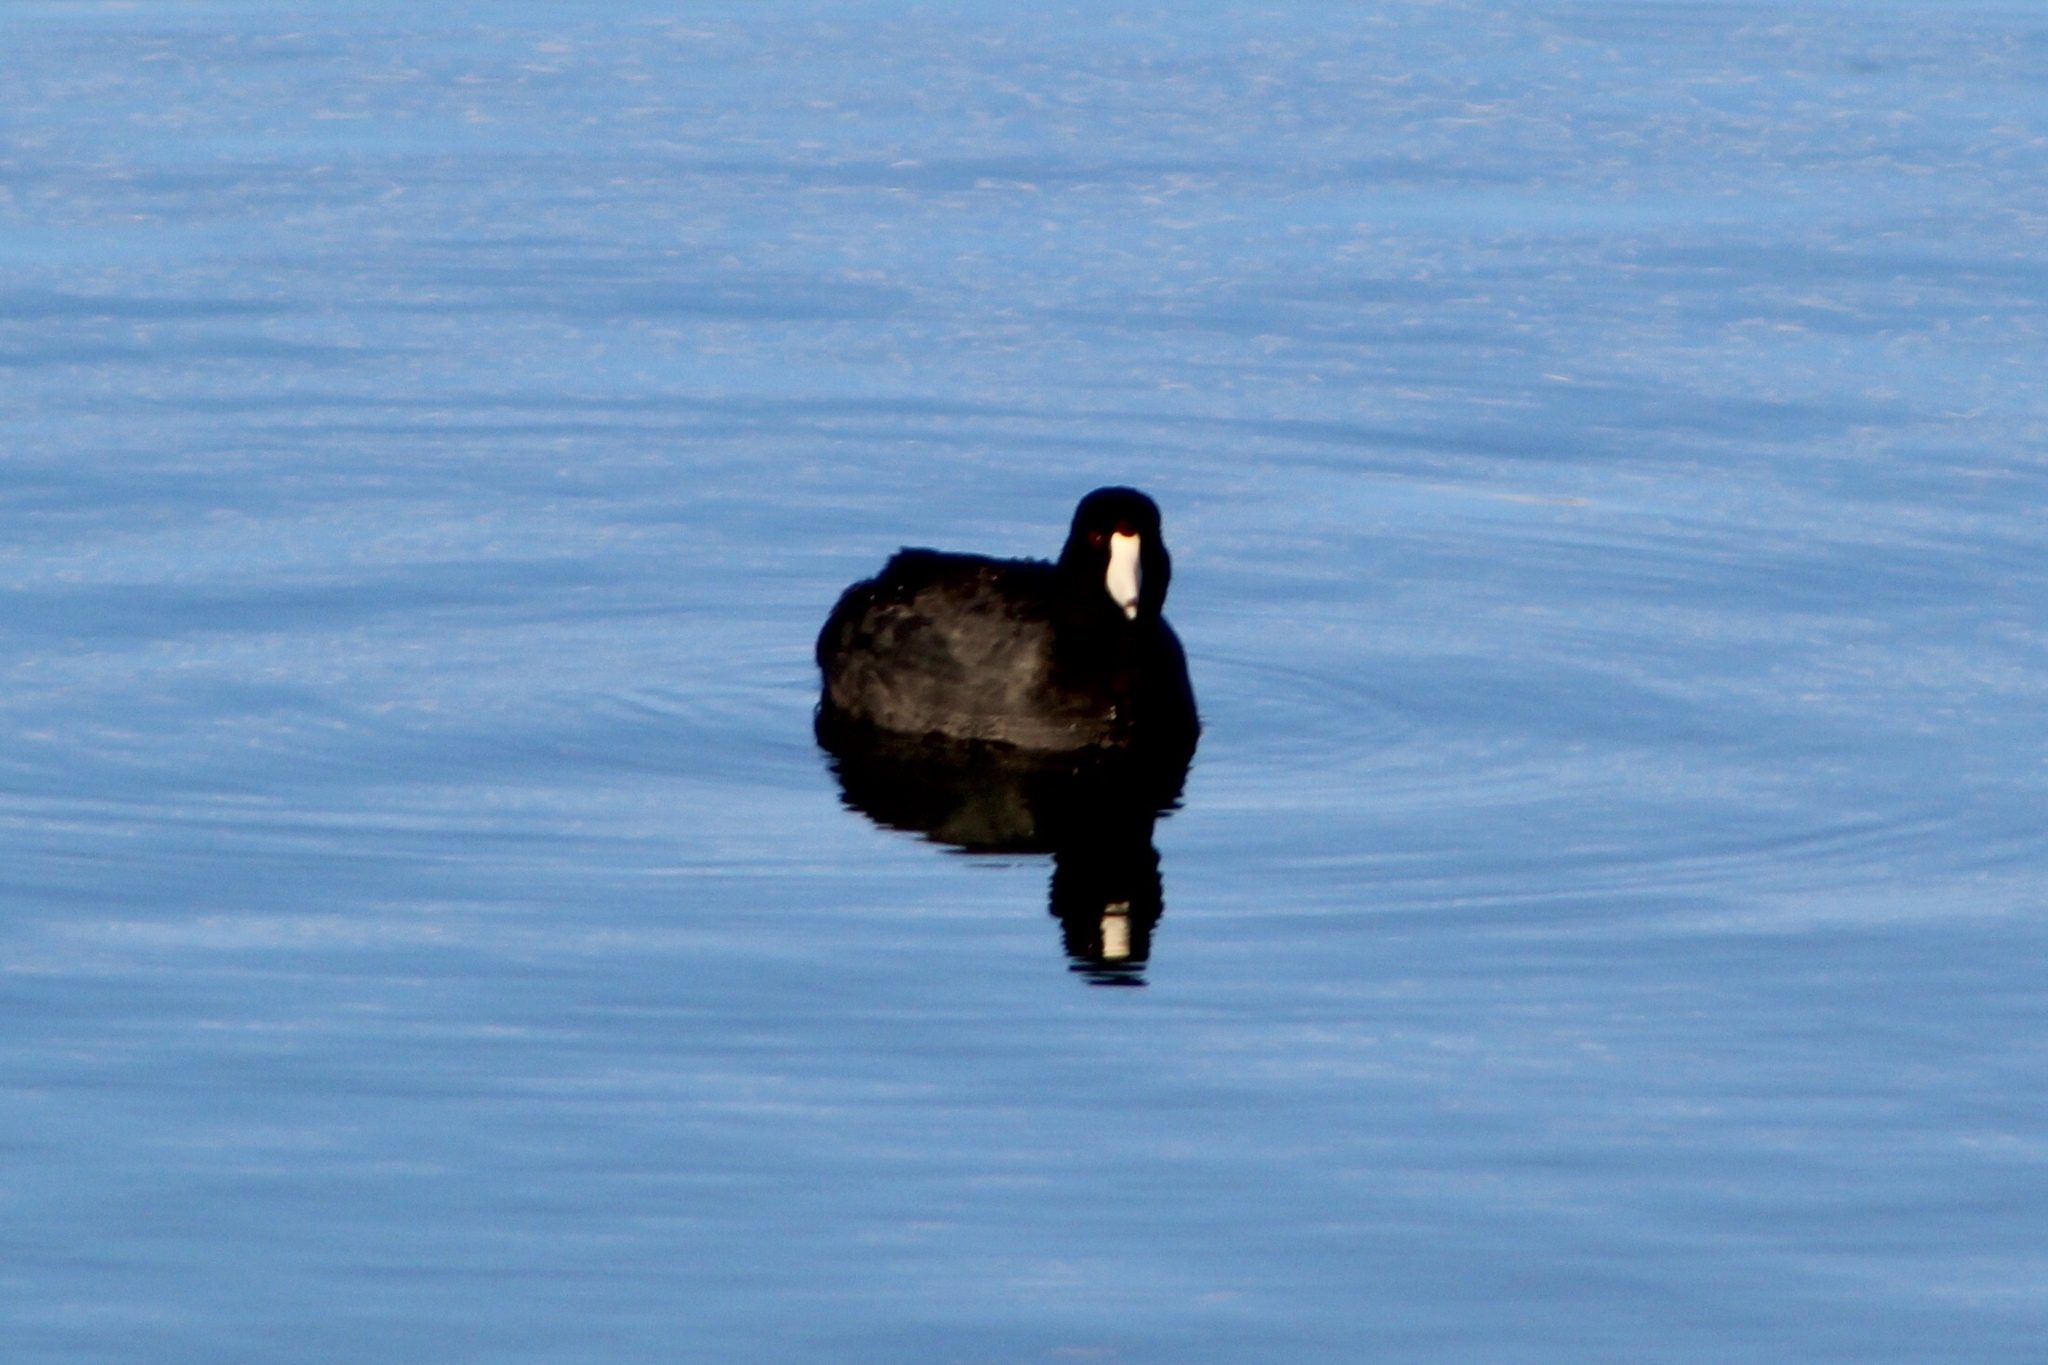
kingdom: Animalia
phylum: Chordata
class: Aves
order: Gruiformes
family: Rallidae
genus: Fulica
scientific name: Fulica americana
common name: American coot
